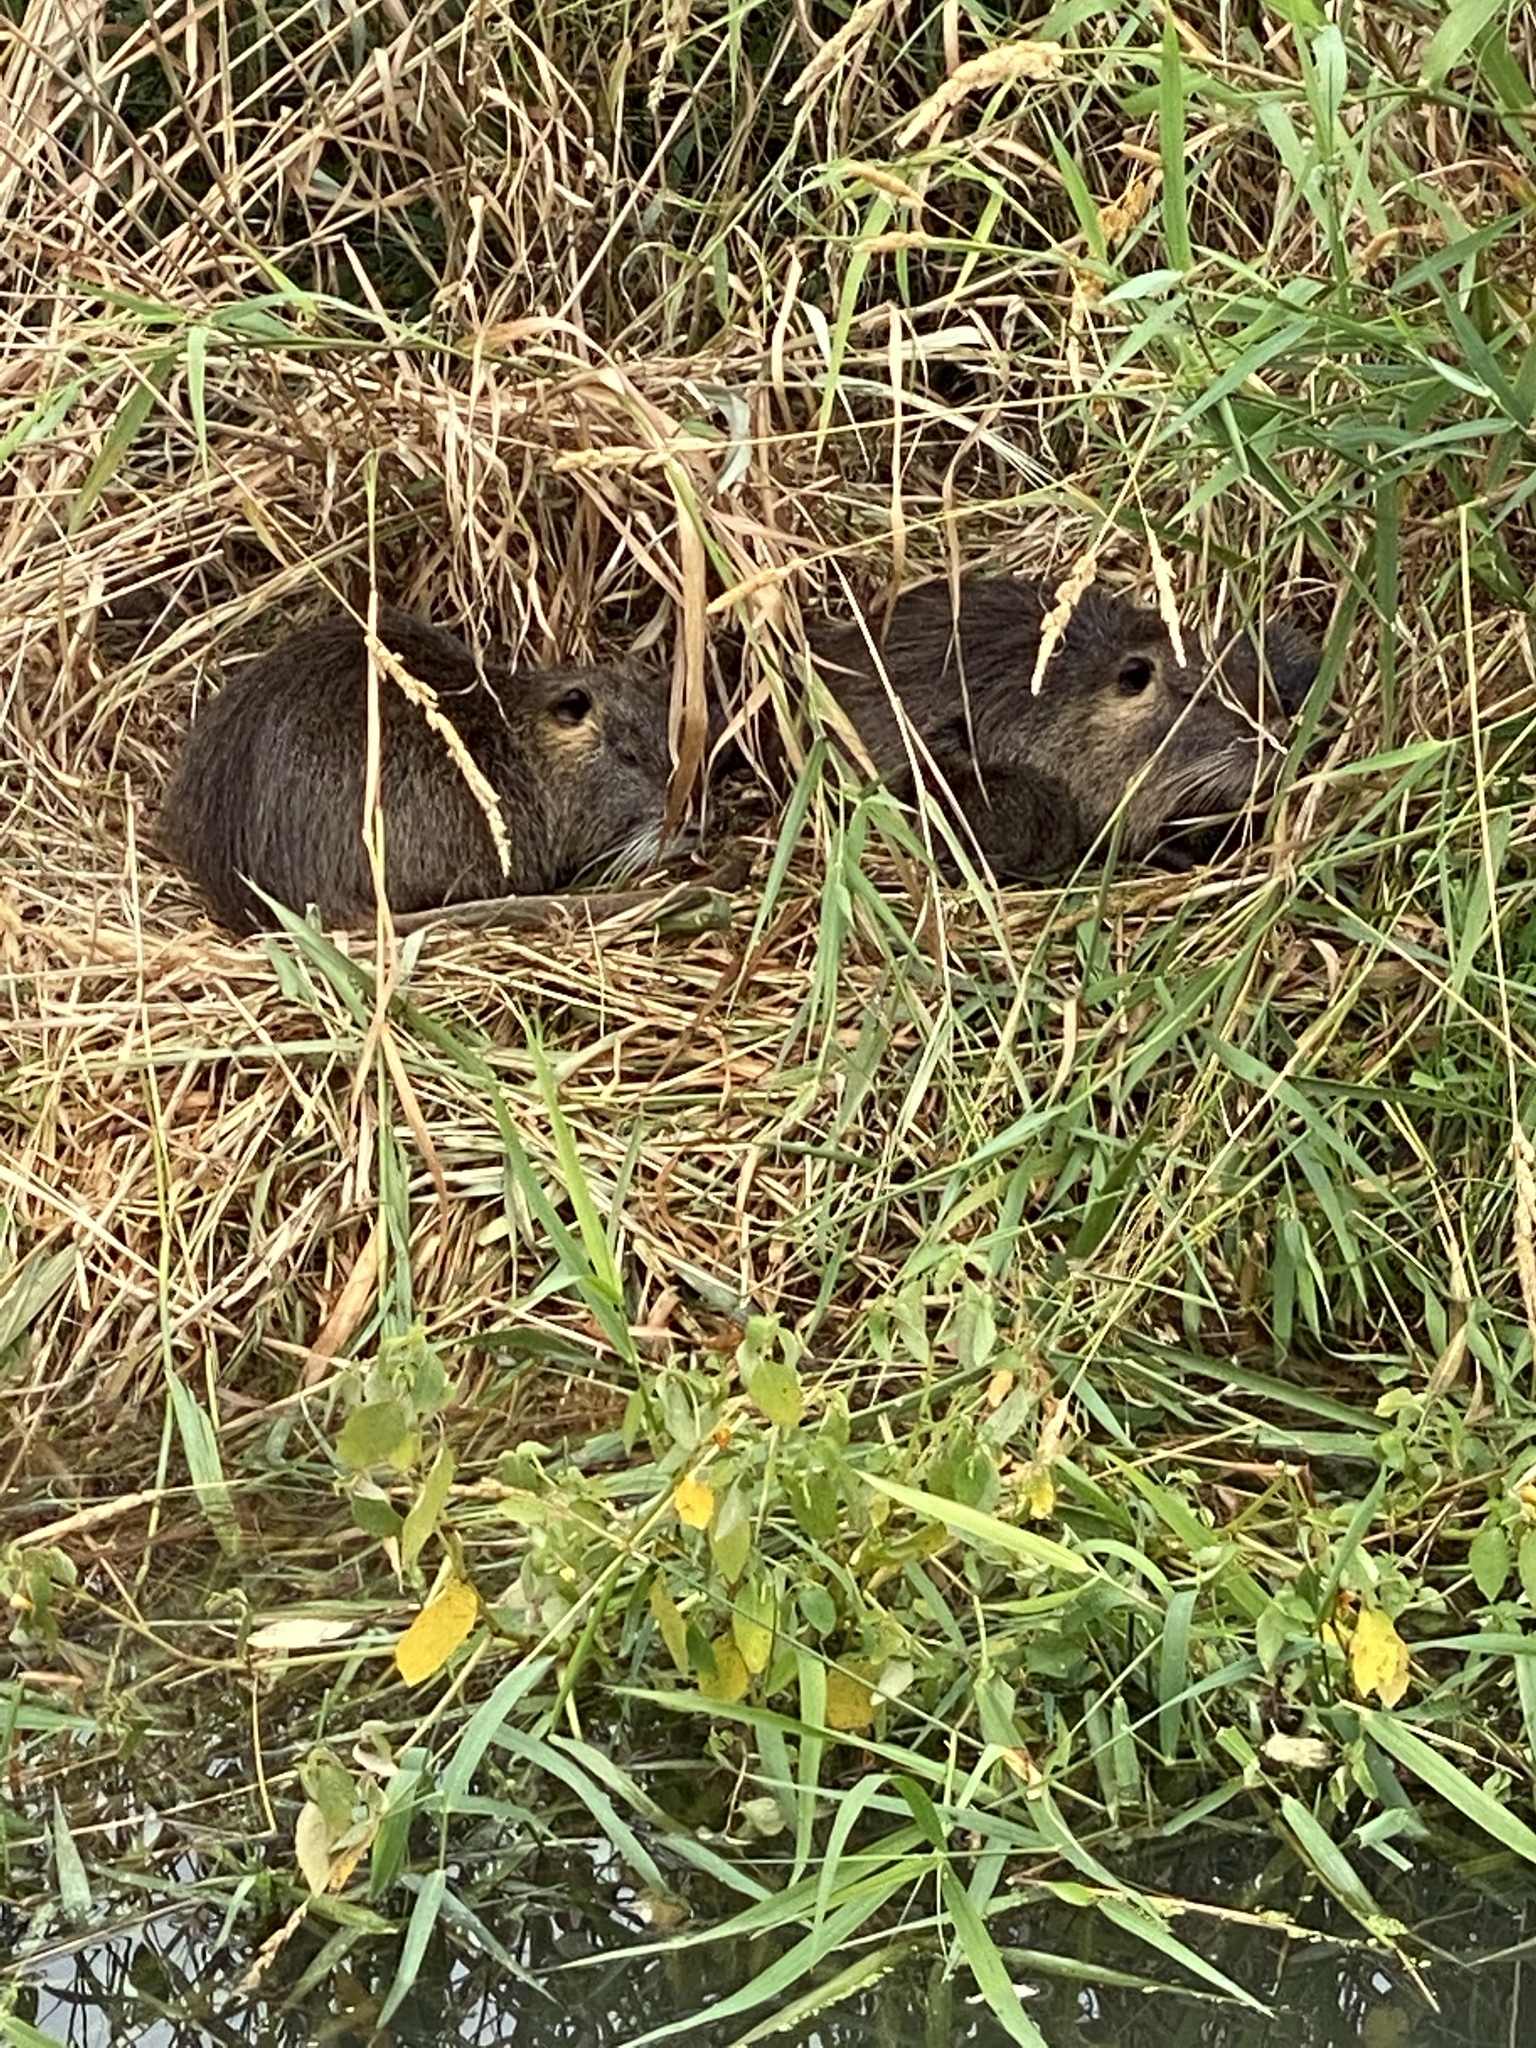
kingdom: Animalia
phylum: Chordata
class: Mammalia
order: Rodentia
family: Myocastoridae
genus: Myocastor
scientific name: Myocastor coypus
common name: Coypu
